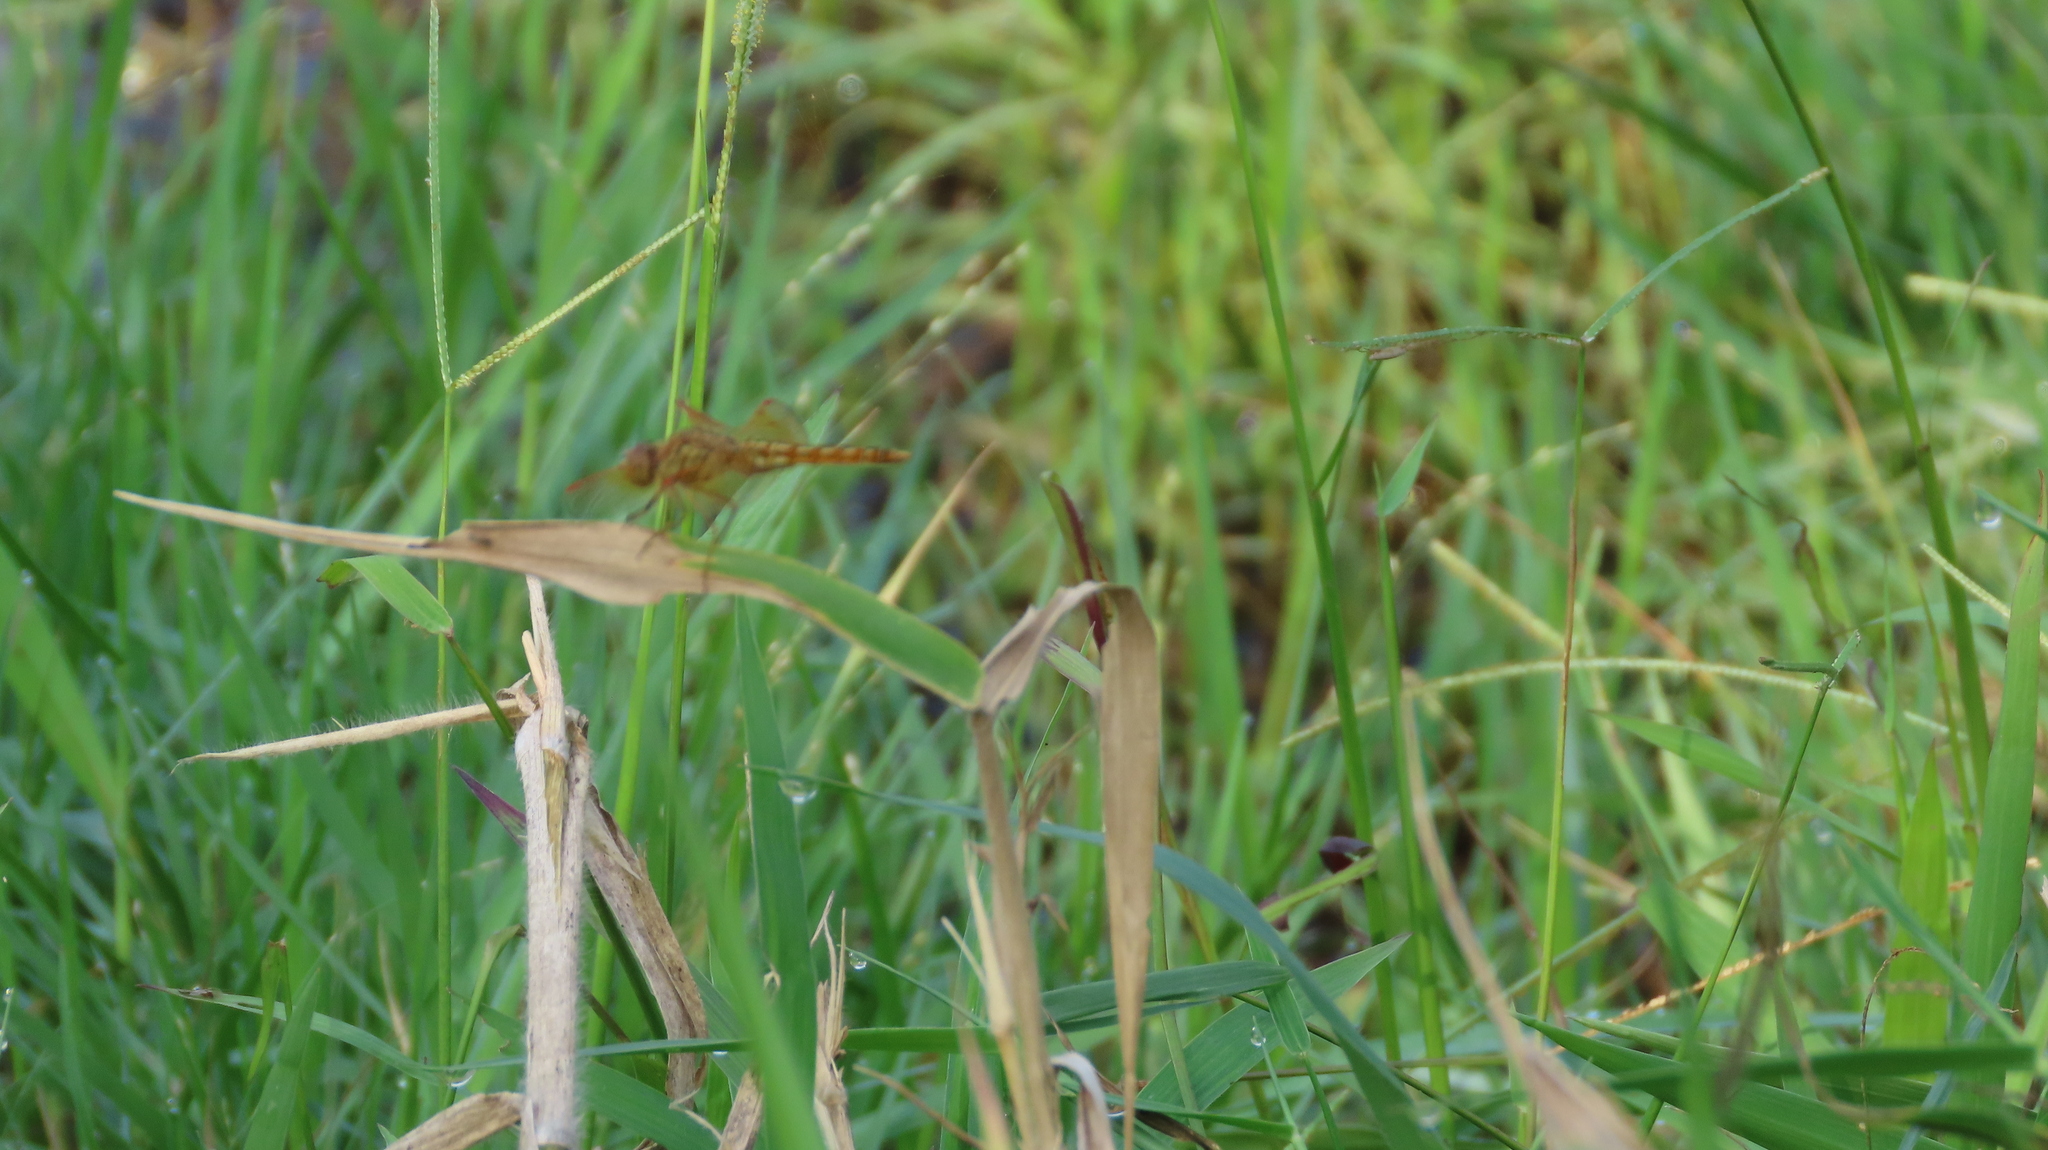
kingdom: Animalia
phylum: Arthropoda
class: Insecta
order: Odonata
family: Libellulidae
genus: Brachythemis
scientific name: Brachythemis contaminata
